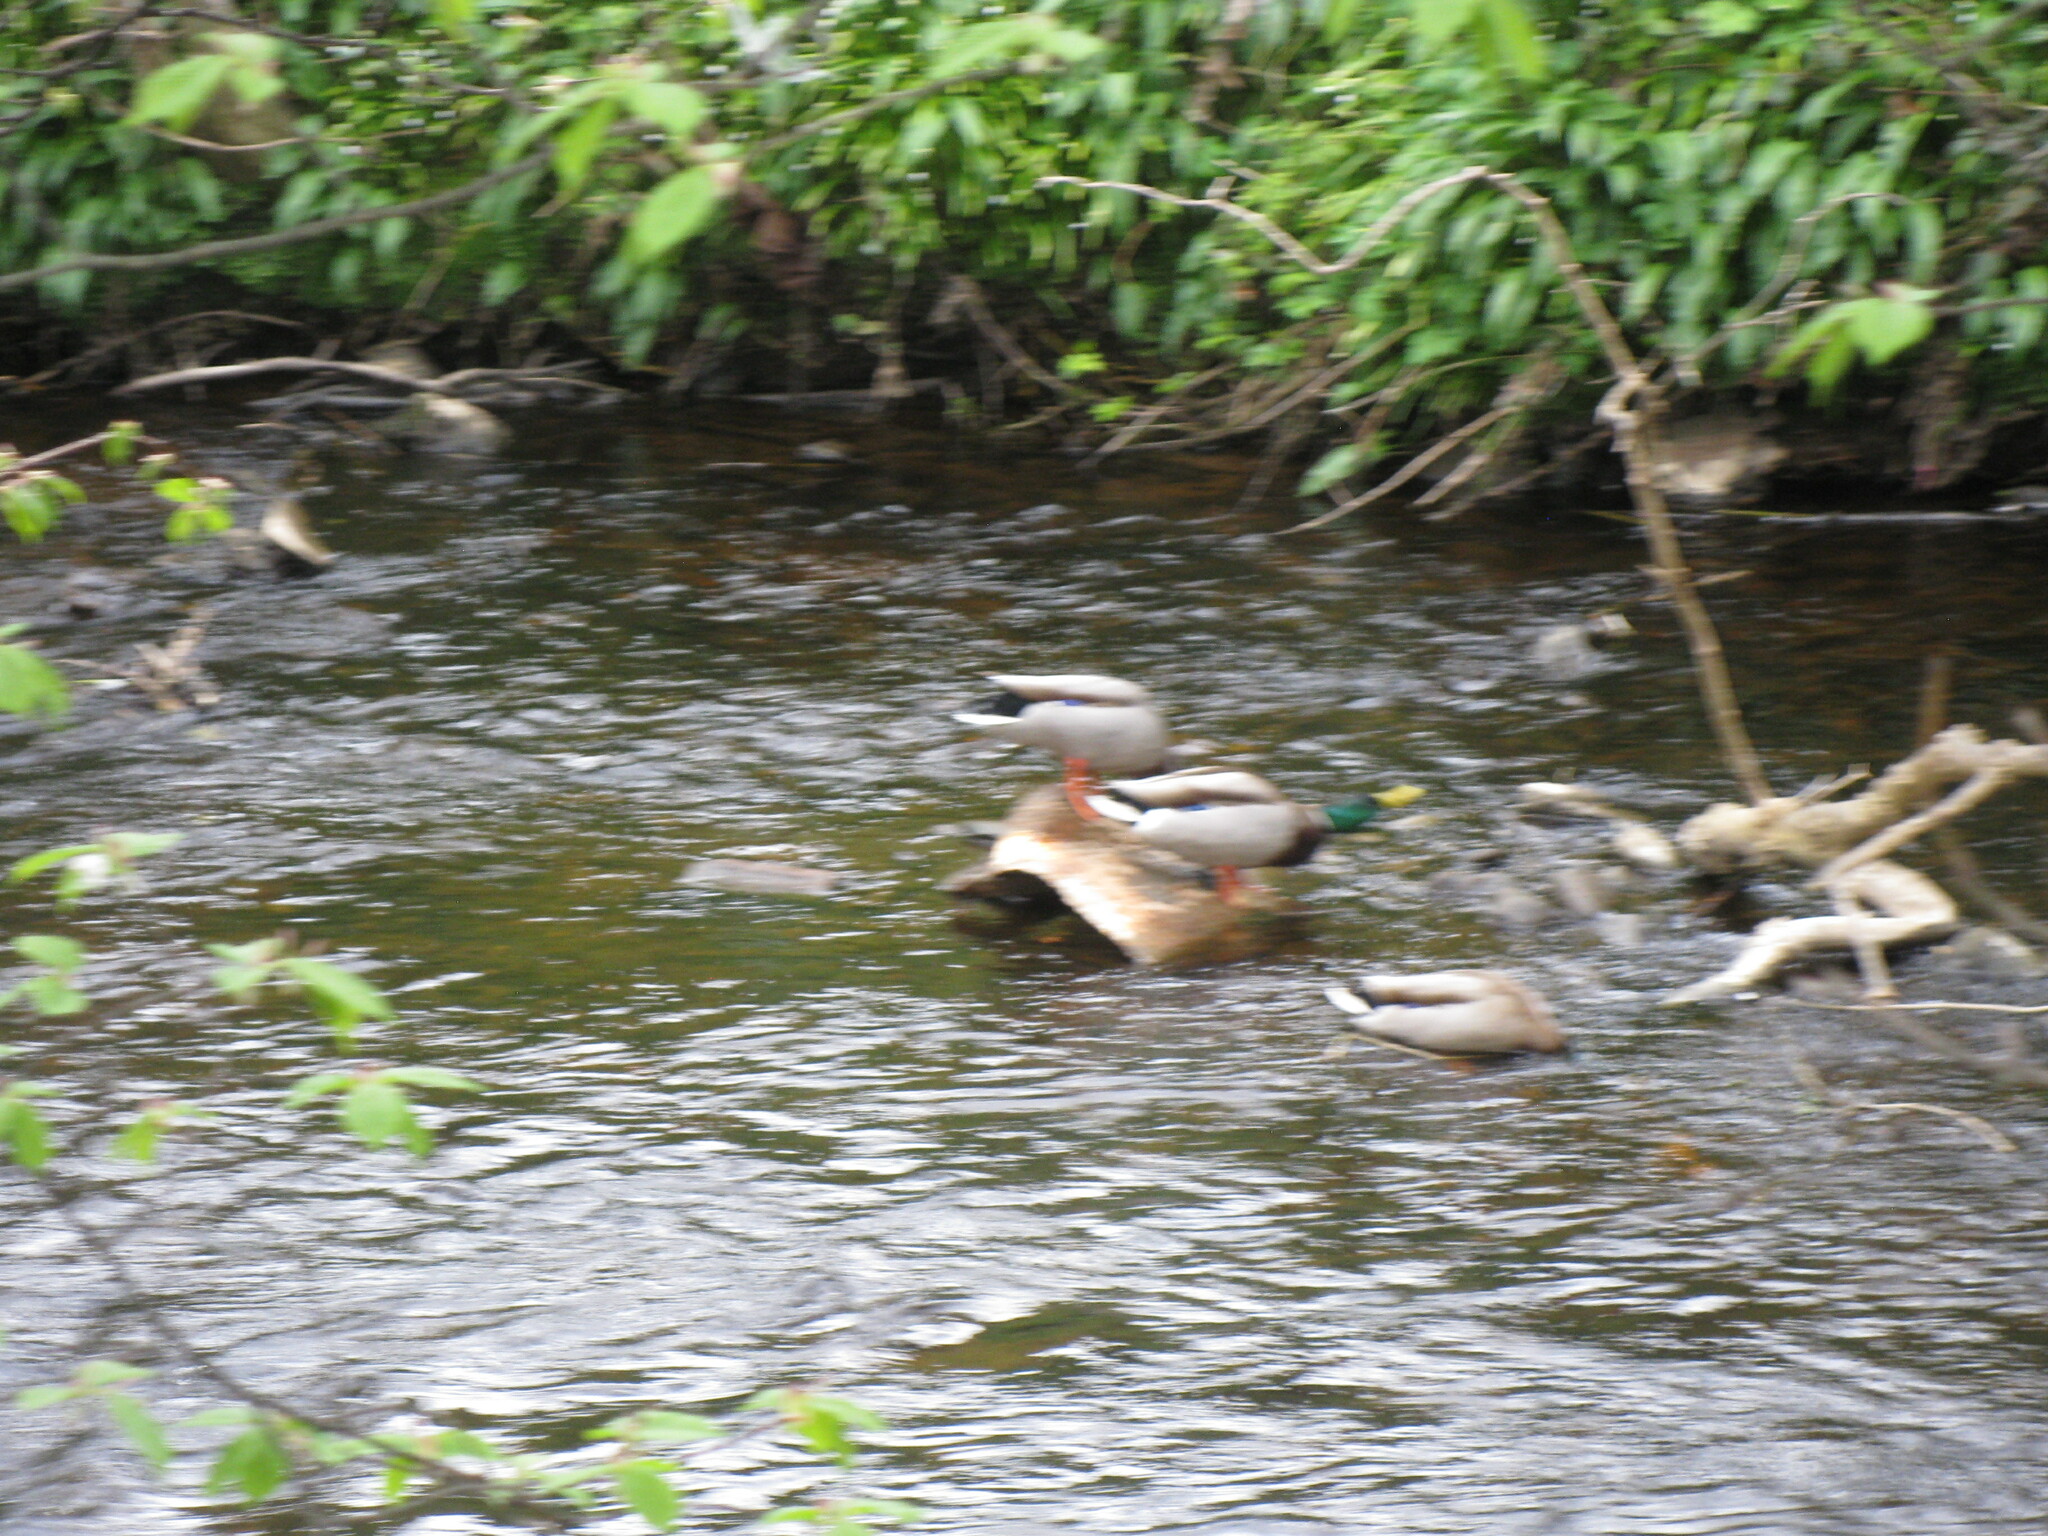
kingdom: Animalia
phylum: Chordata
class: Aves
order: Anseriformes
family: Anatidae
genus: Anas
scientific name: Anas platyrhynchos
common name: Mallard
